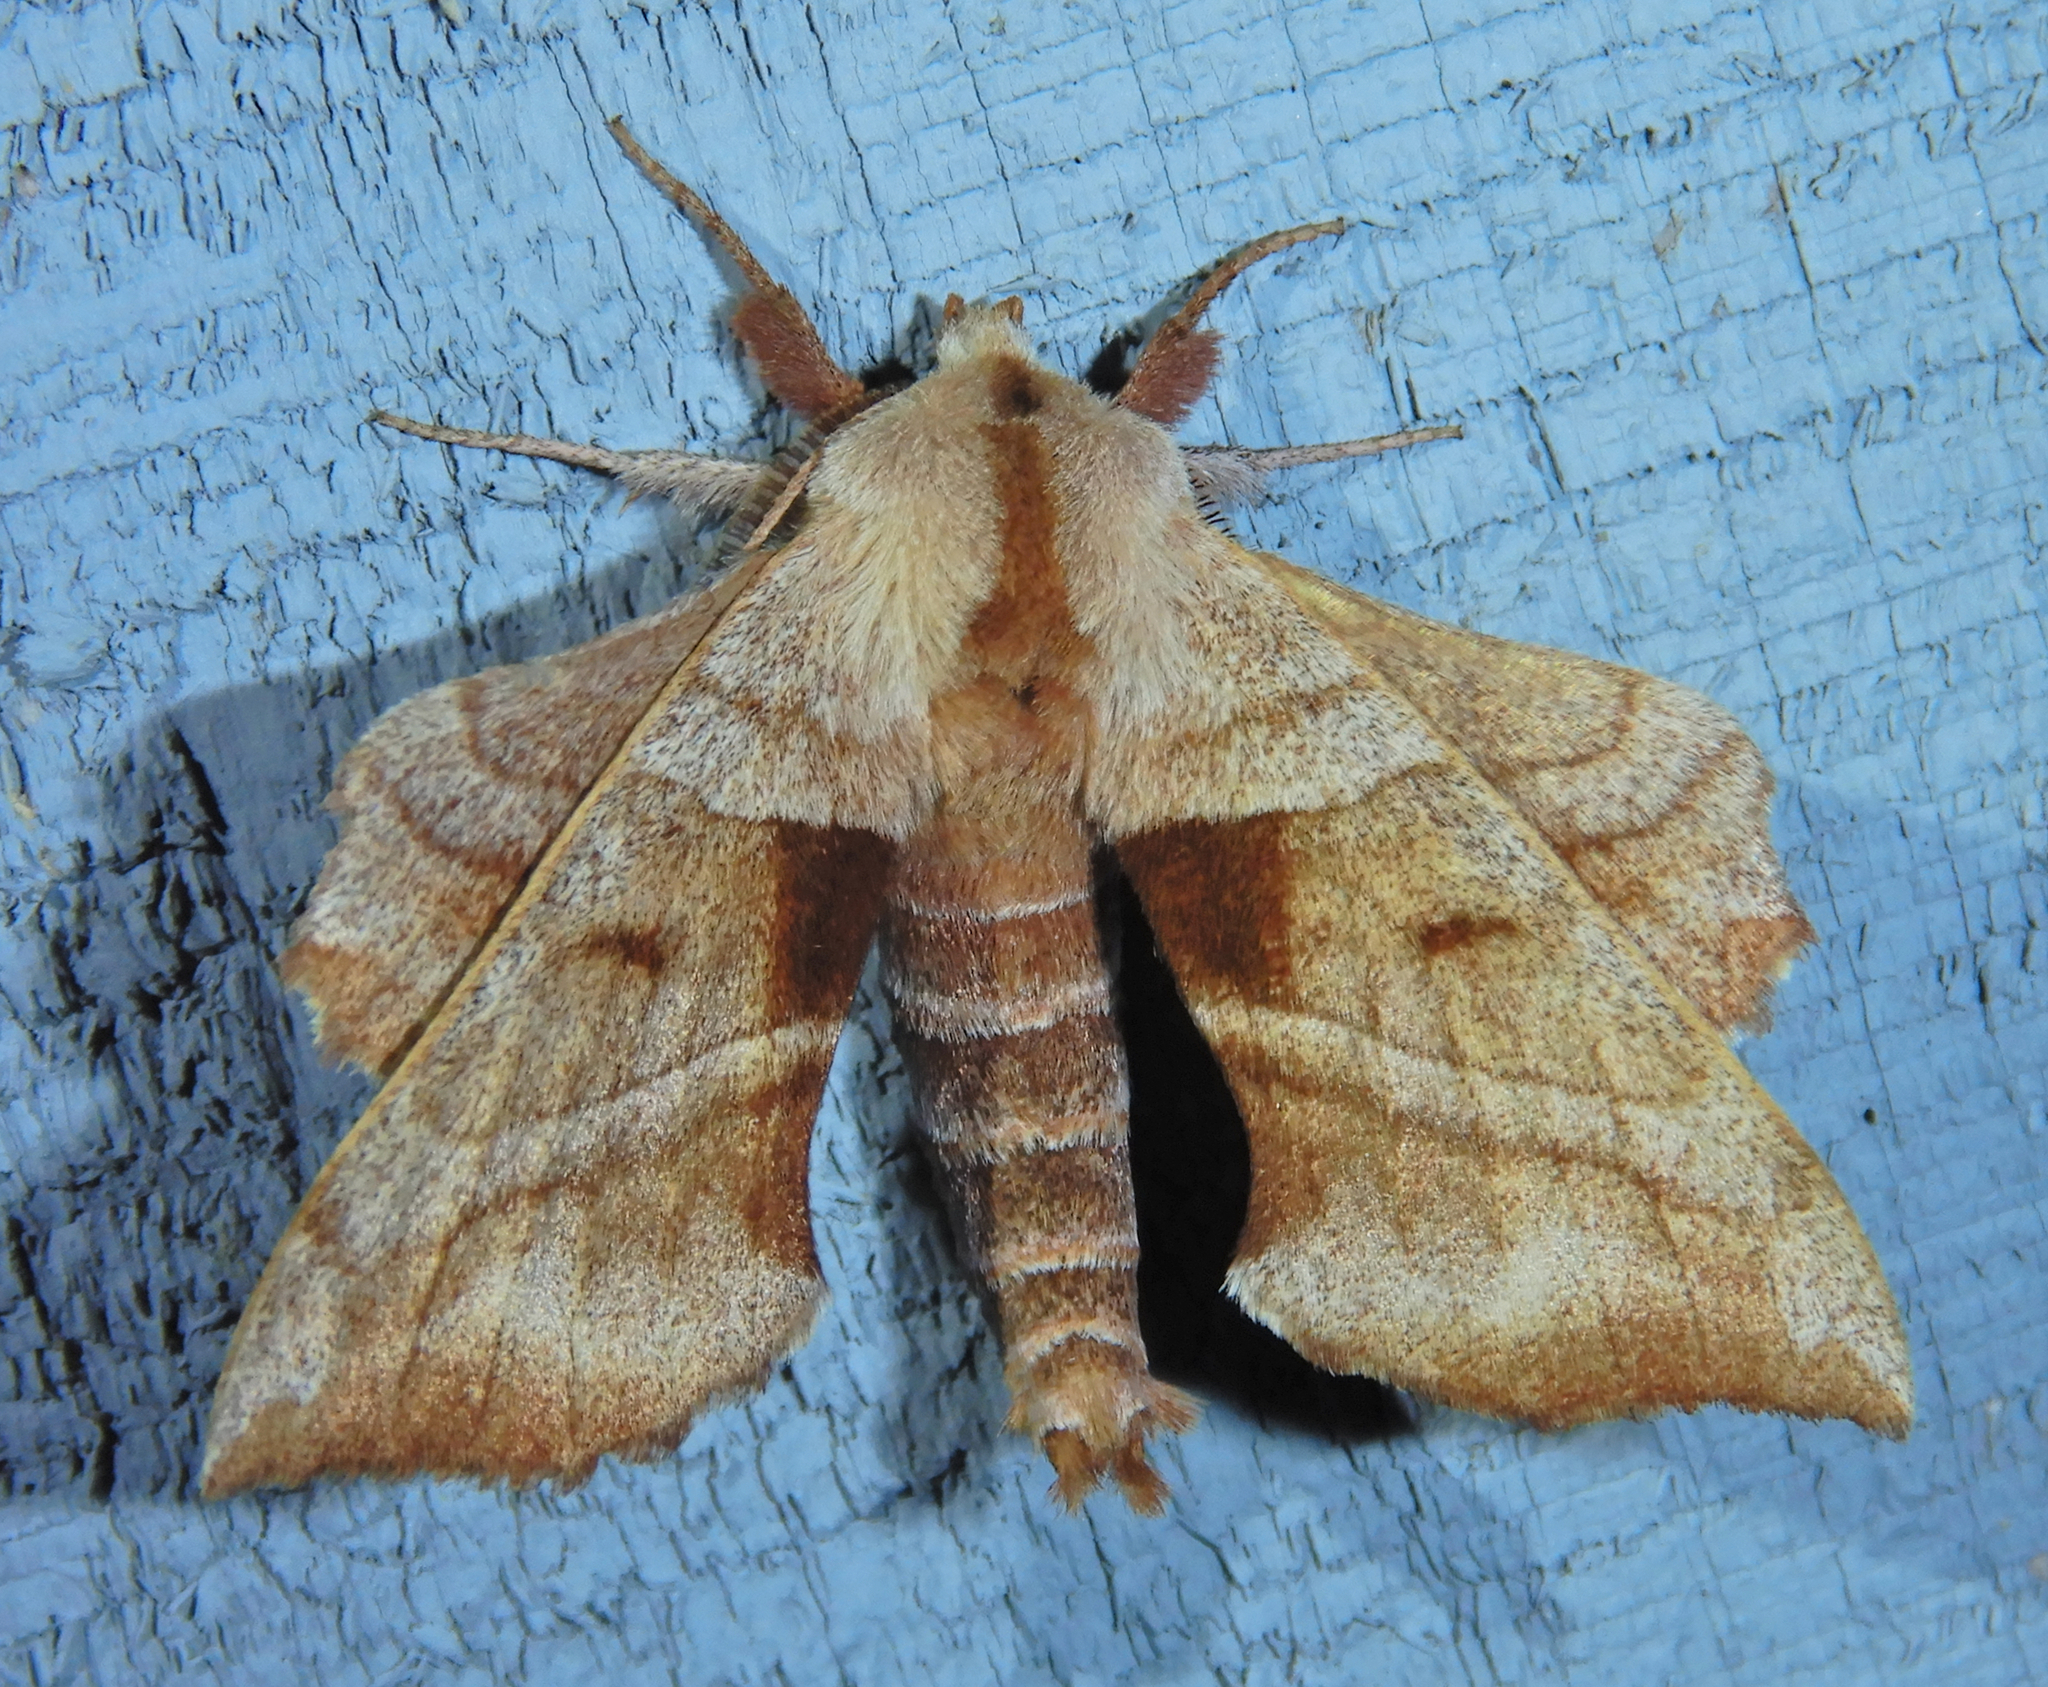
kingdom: Animalia
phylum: Arthropoda
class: Insecta
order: Lepidoptera
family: Sphingidae
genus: Amorpha
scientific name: Amorpha juglandis
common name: Walnut sphinx
